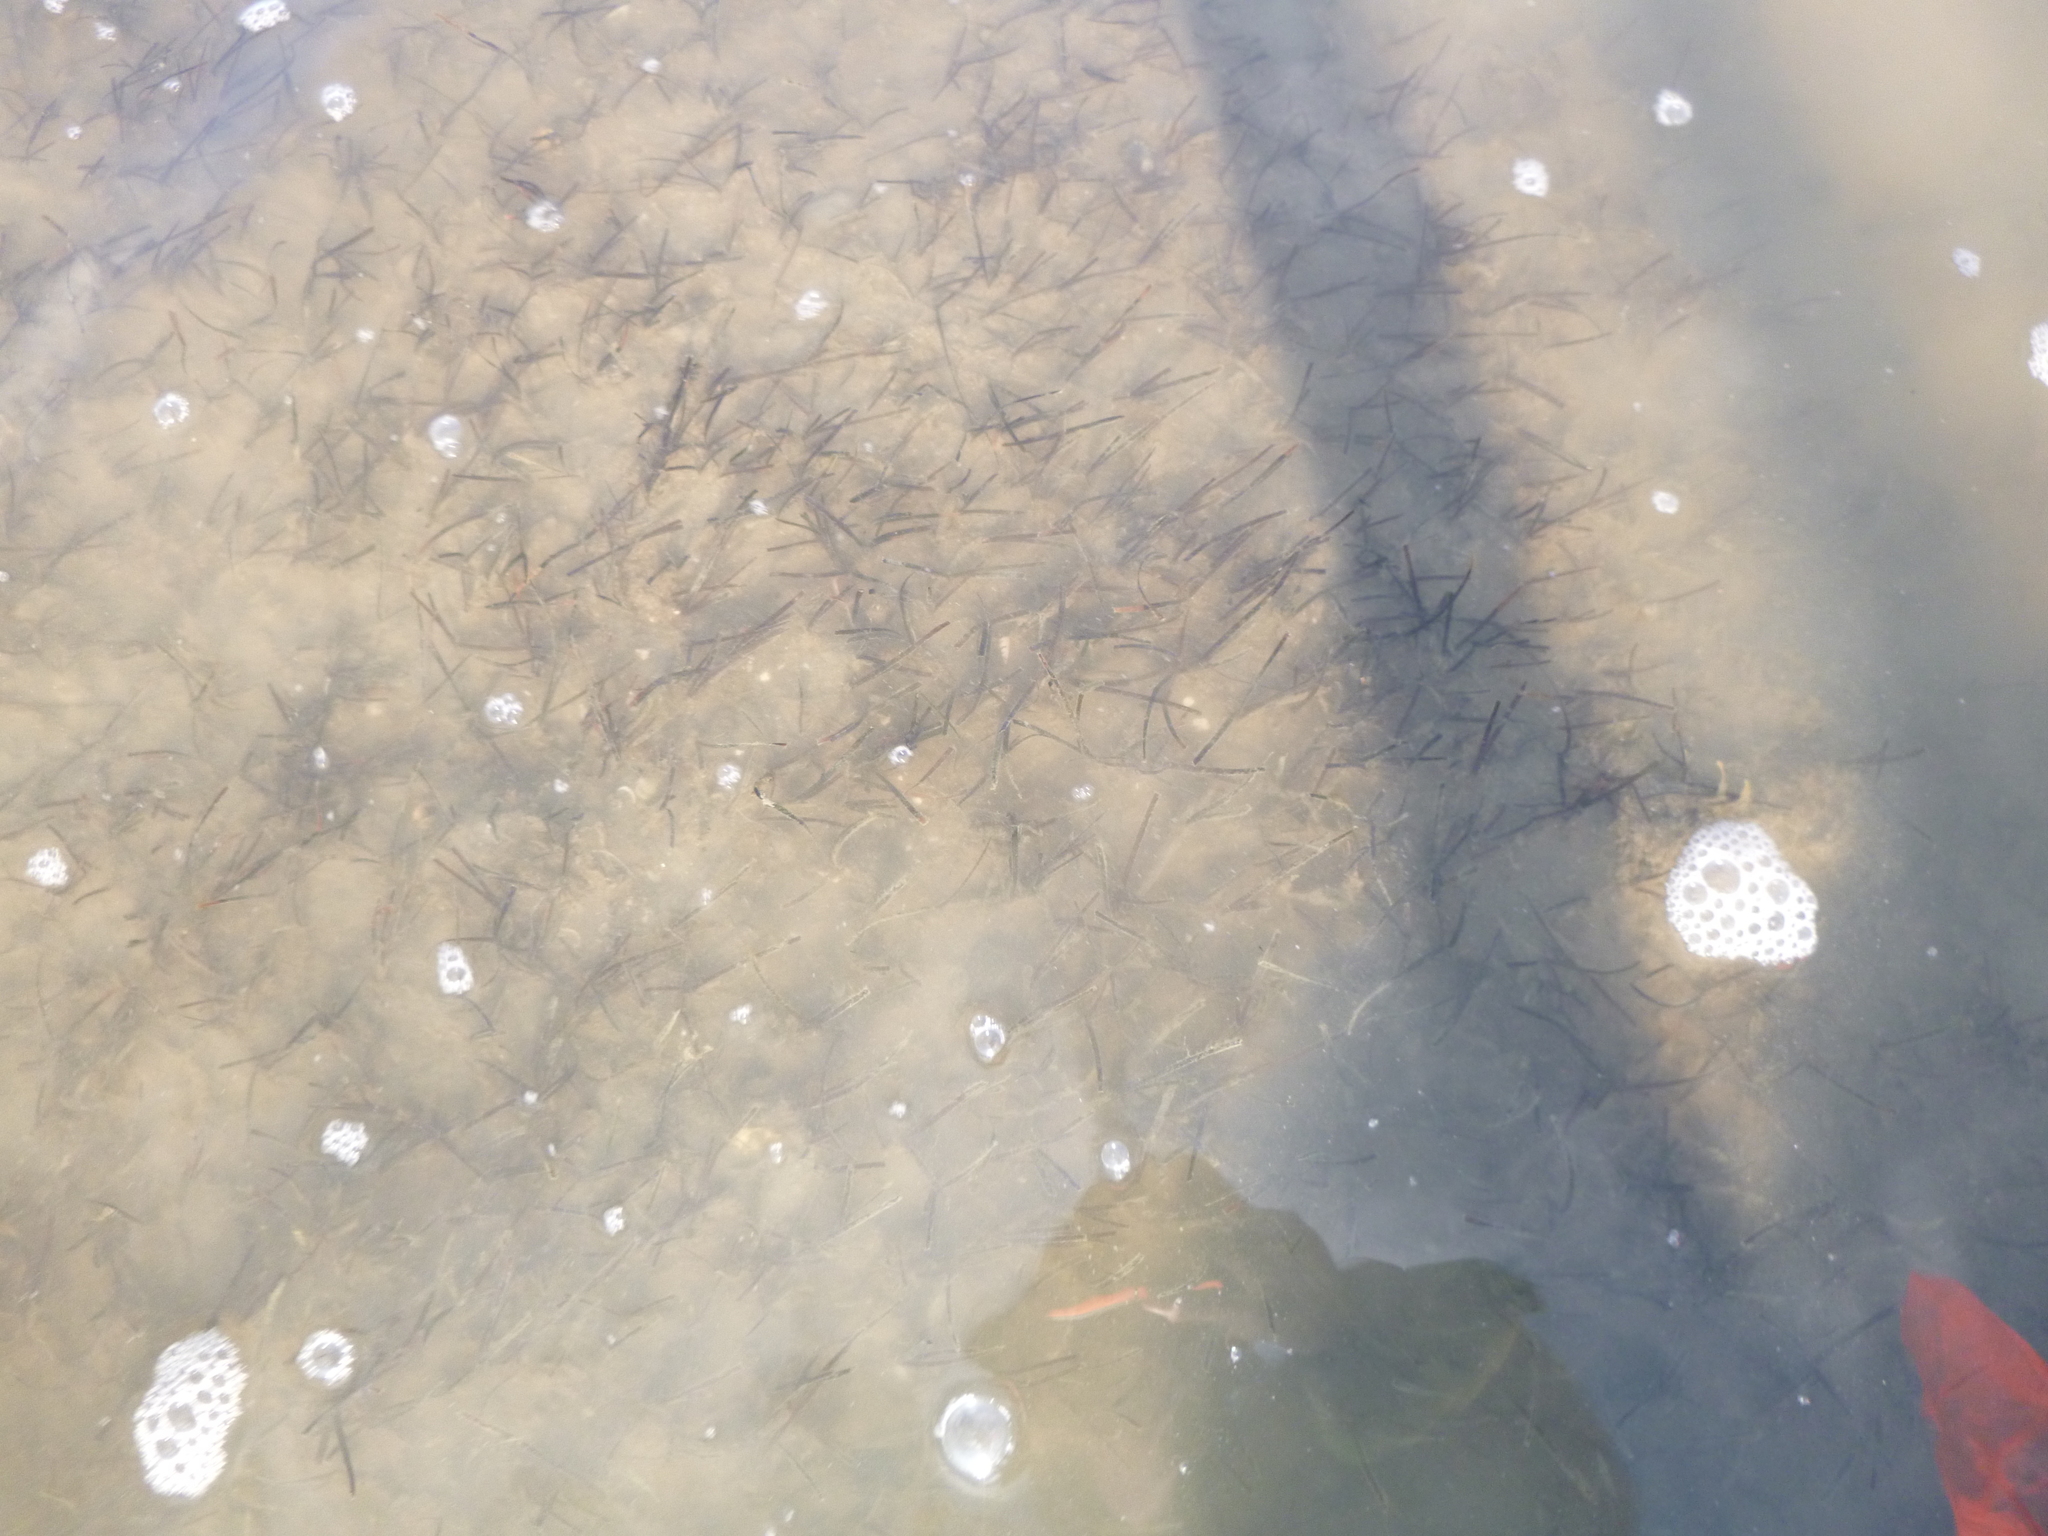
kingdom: Plantae
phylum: Tracheophyta
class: Liliopsida
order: Alismatales
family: Zosteraceae
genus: Zostera
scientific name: Zostera novazelandica
